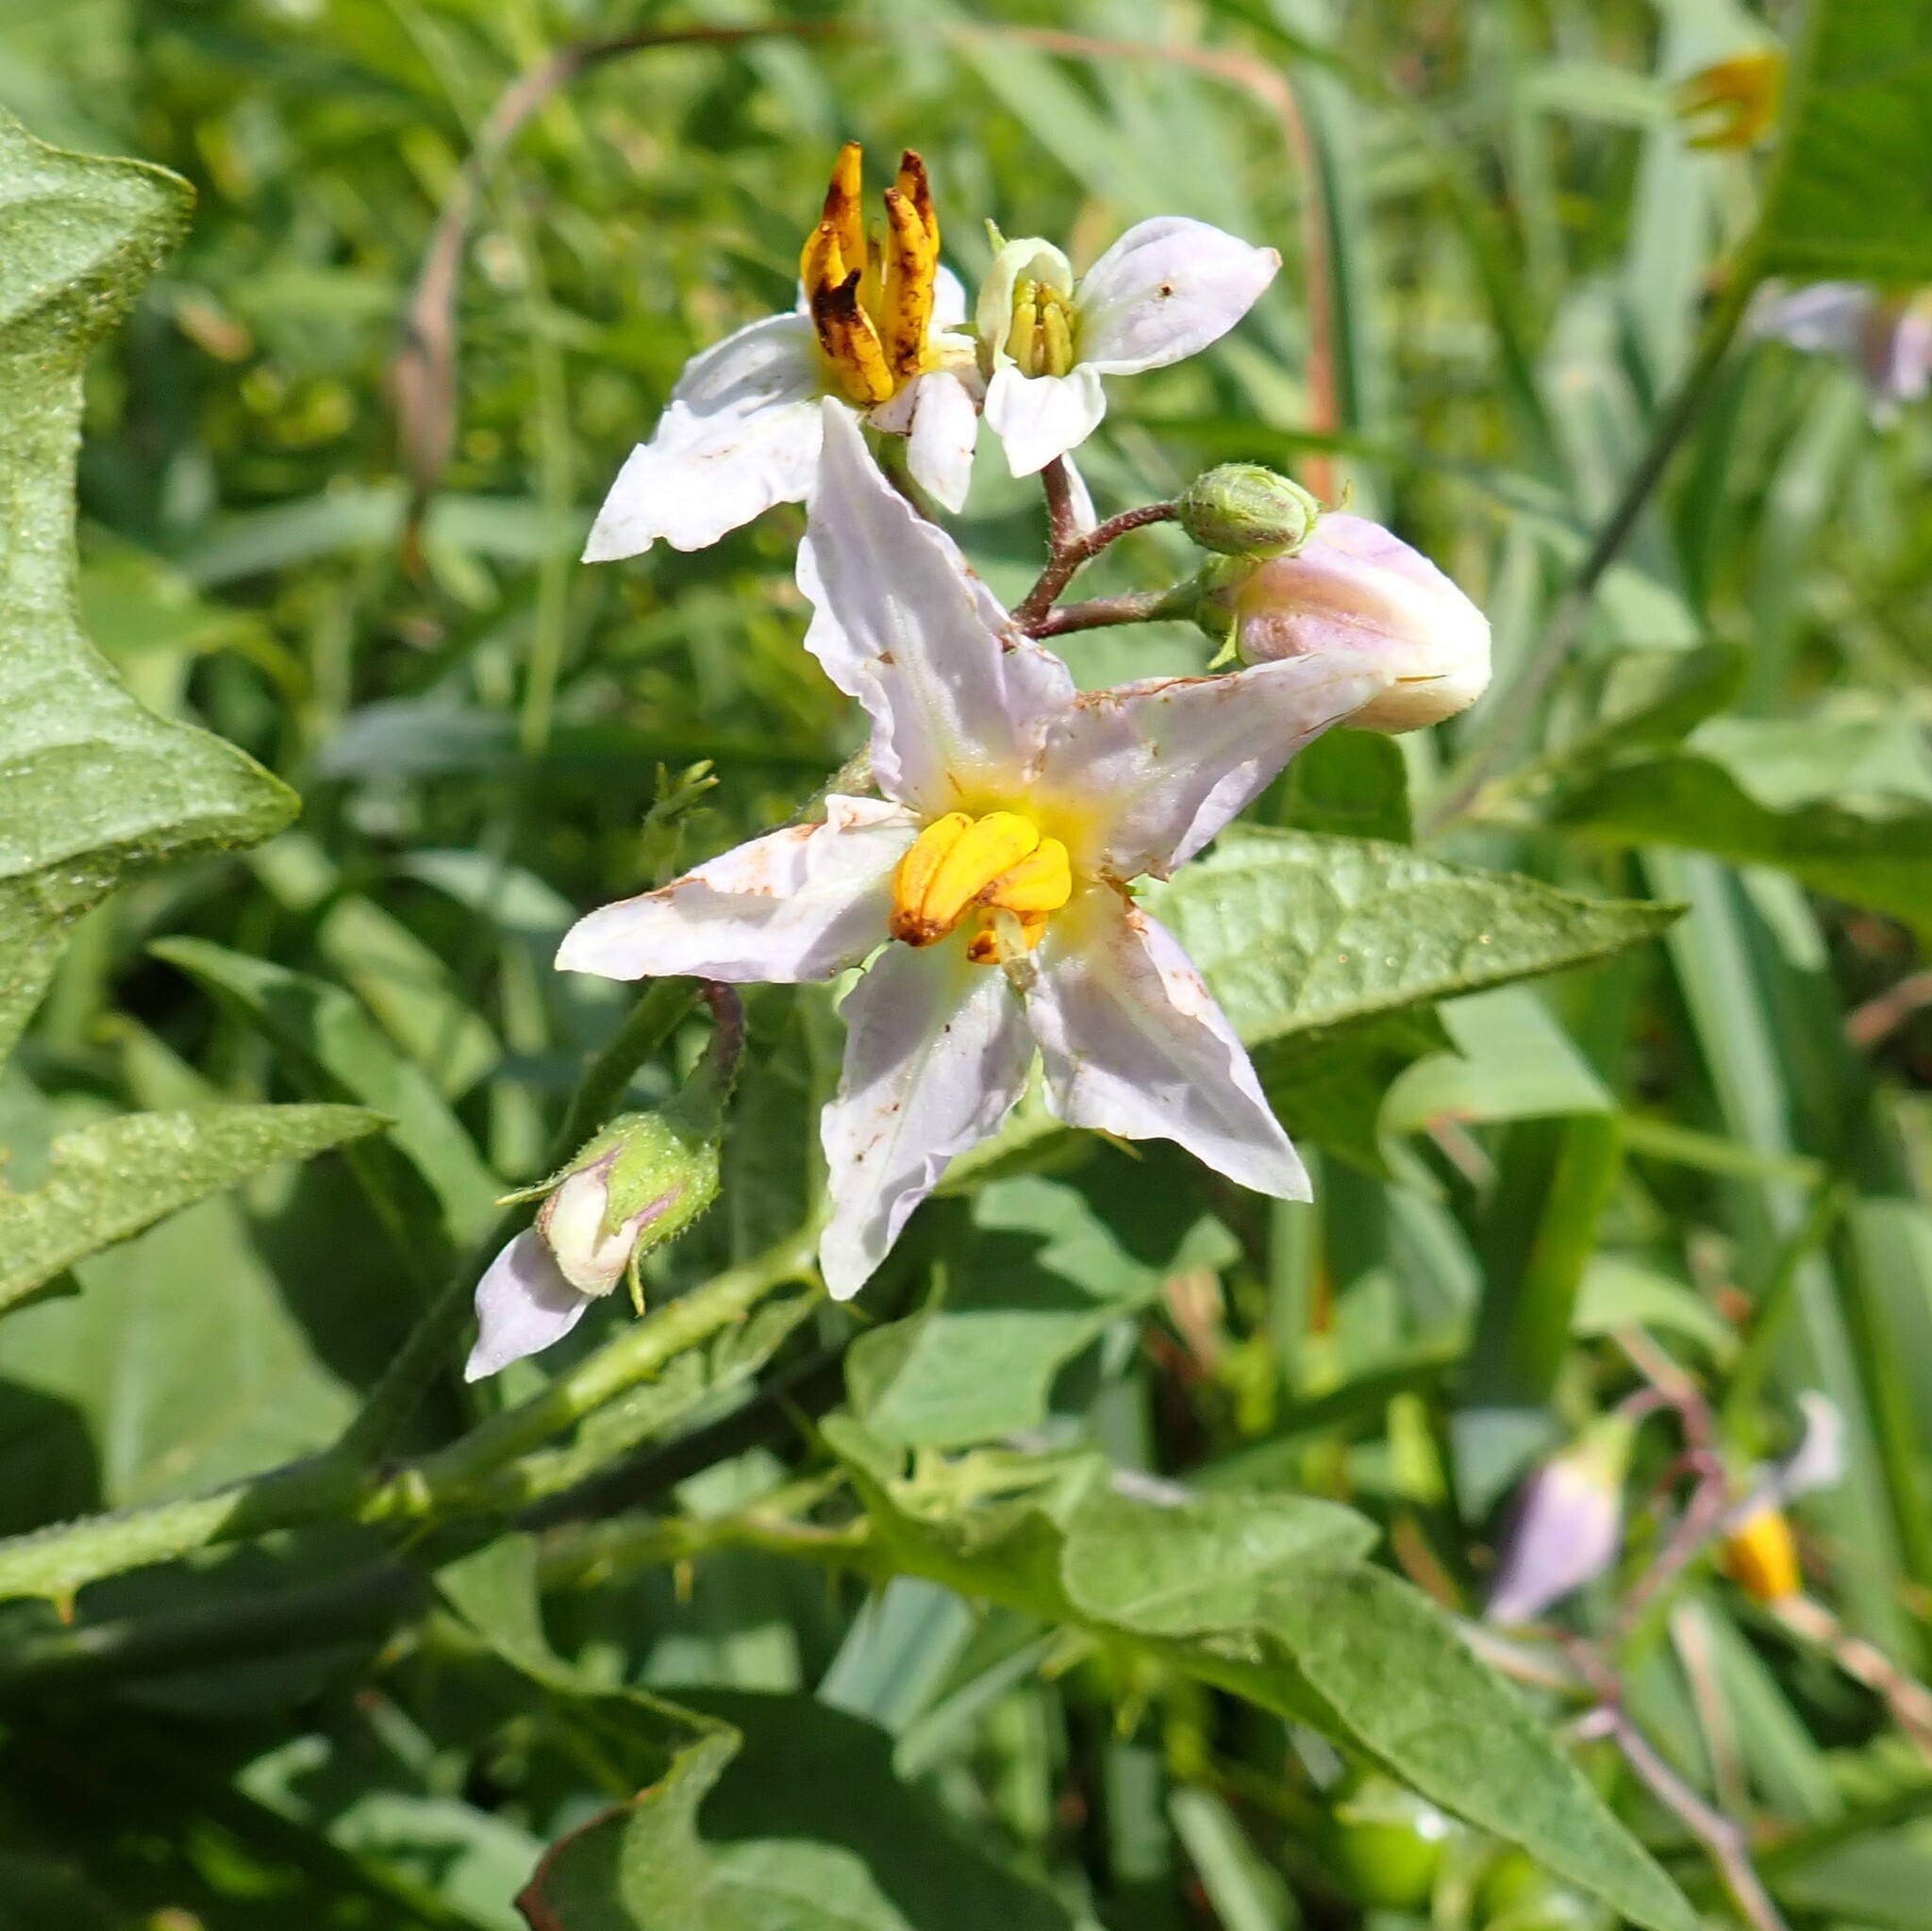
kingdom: Plantae
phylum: Tracheophyta
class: Magnoliopsida
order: Solanales
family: Solanaceae
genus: Solanum
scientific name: Solanum carolinense
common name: Horse-nettle
